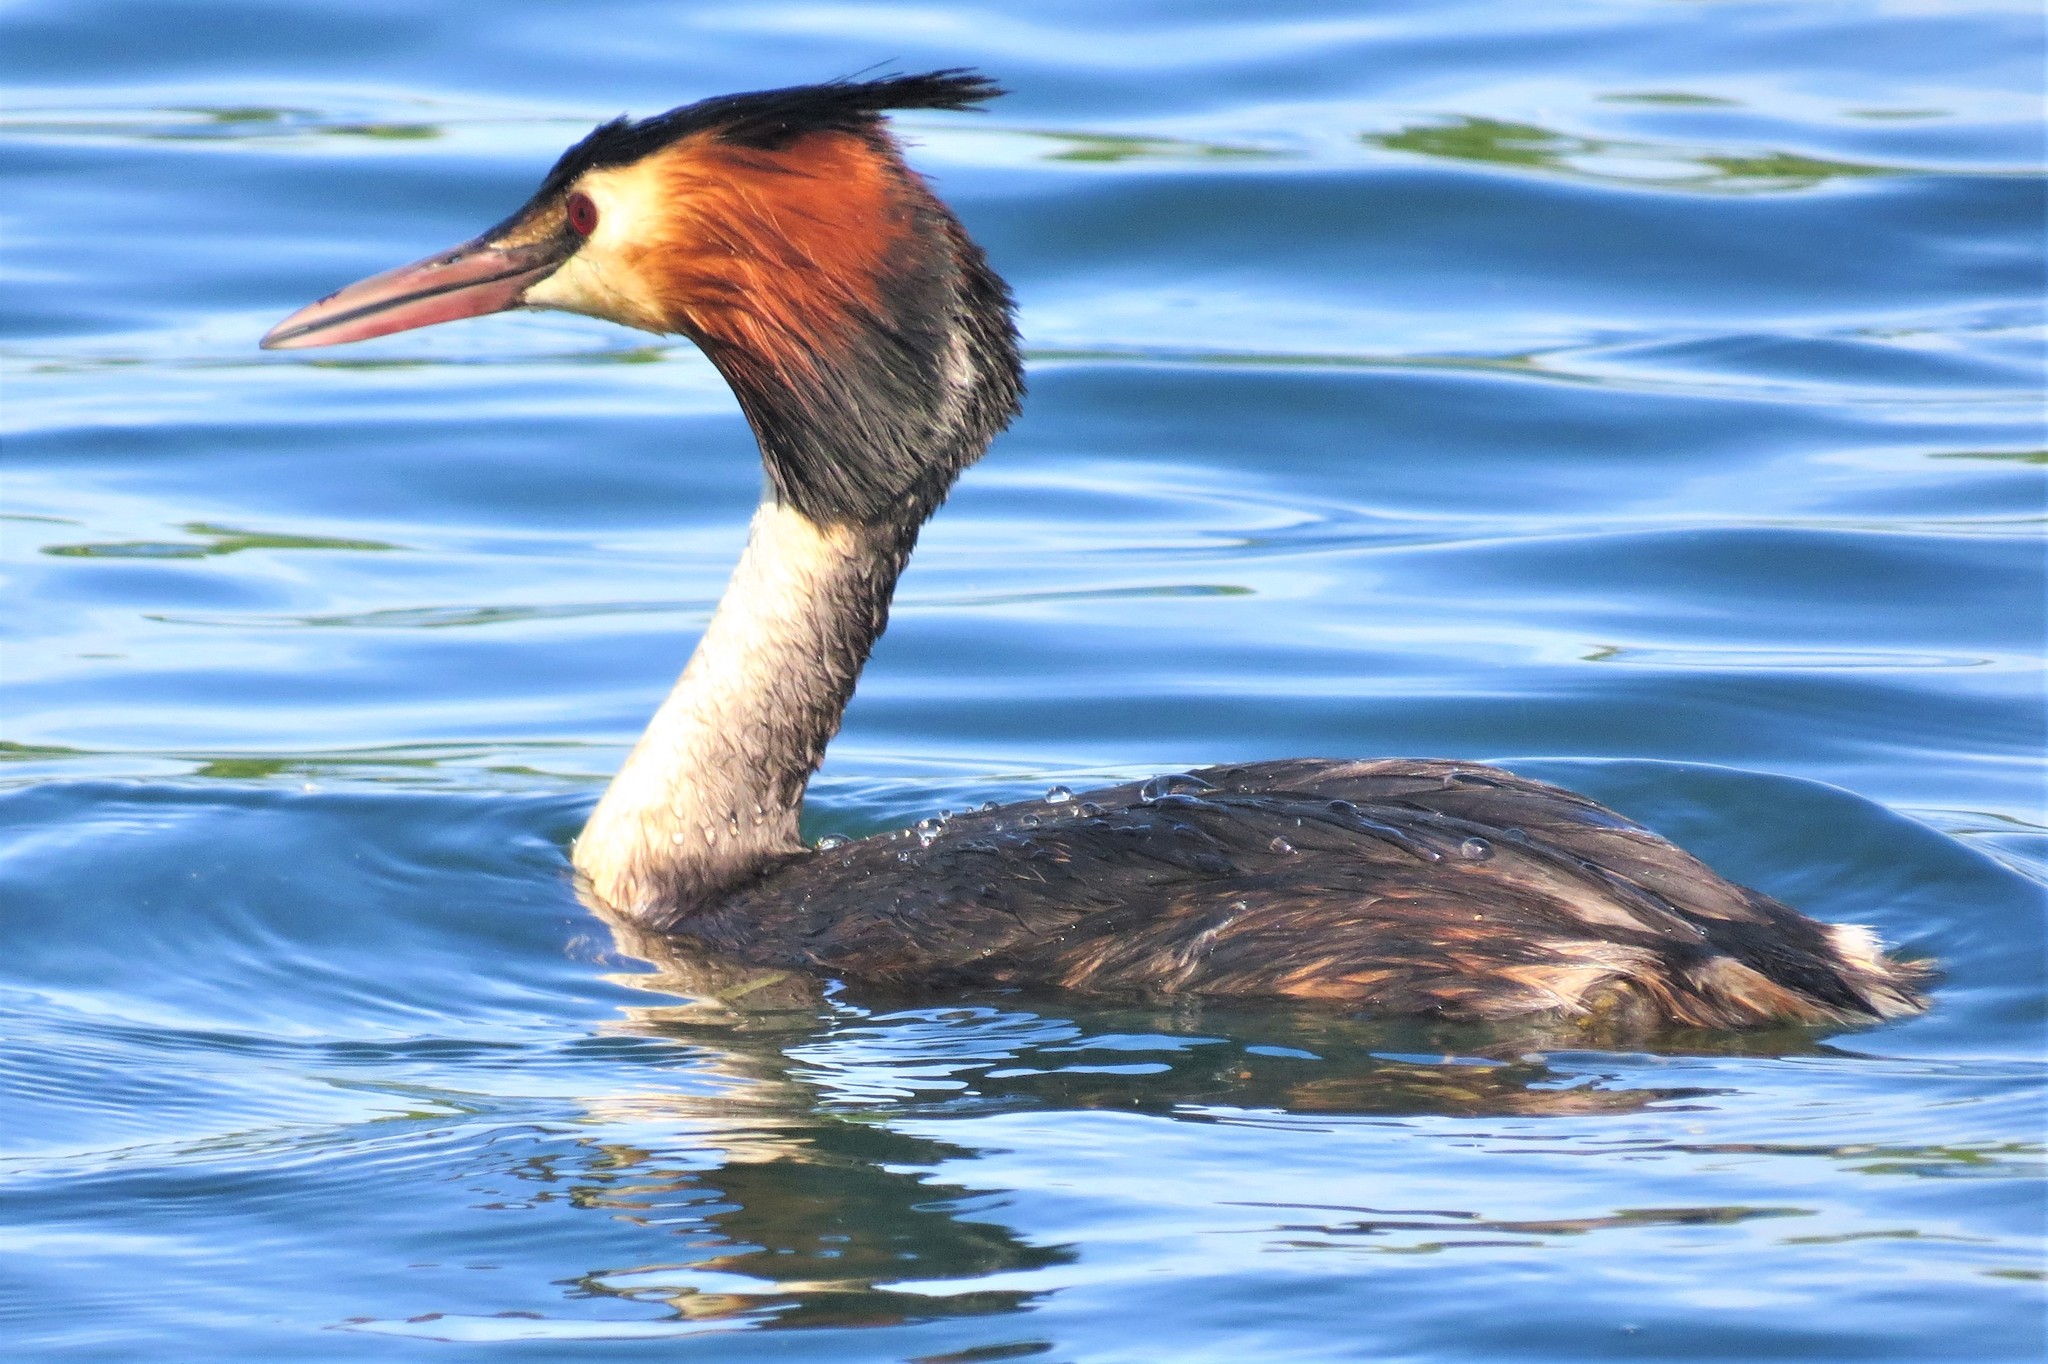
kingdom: Animalia
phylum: Chordata
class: Aves
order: Podicipediformes
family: Podicipedidae
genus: Podiceps
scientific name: Podiceps cristatus
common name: Great crested grebe
